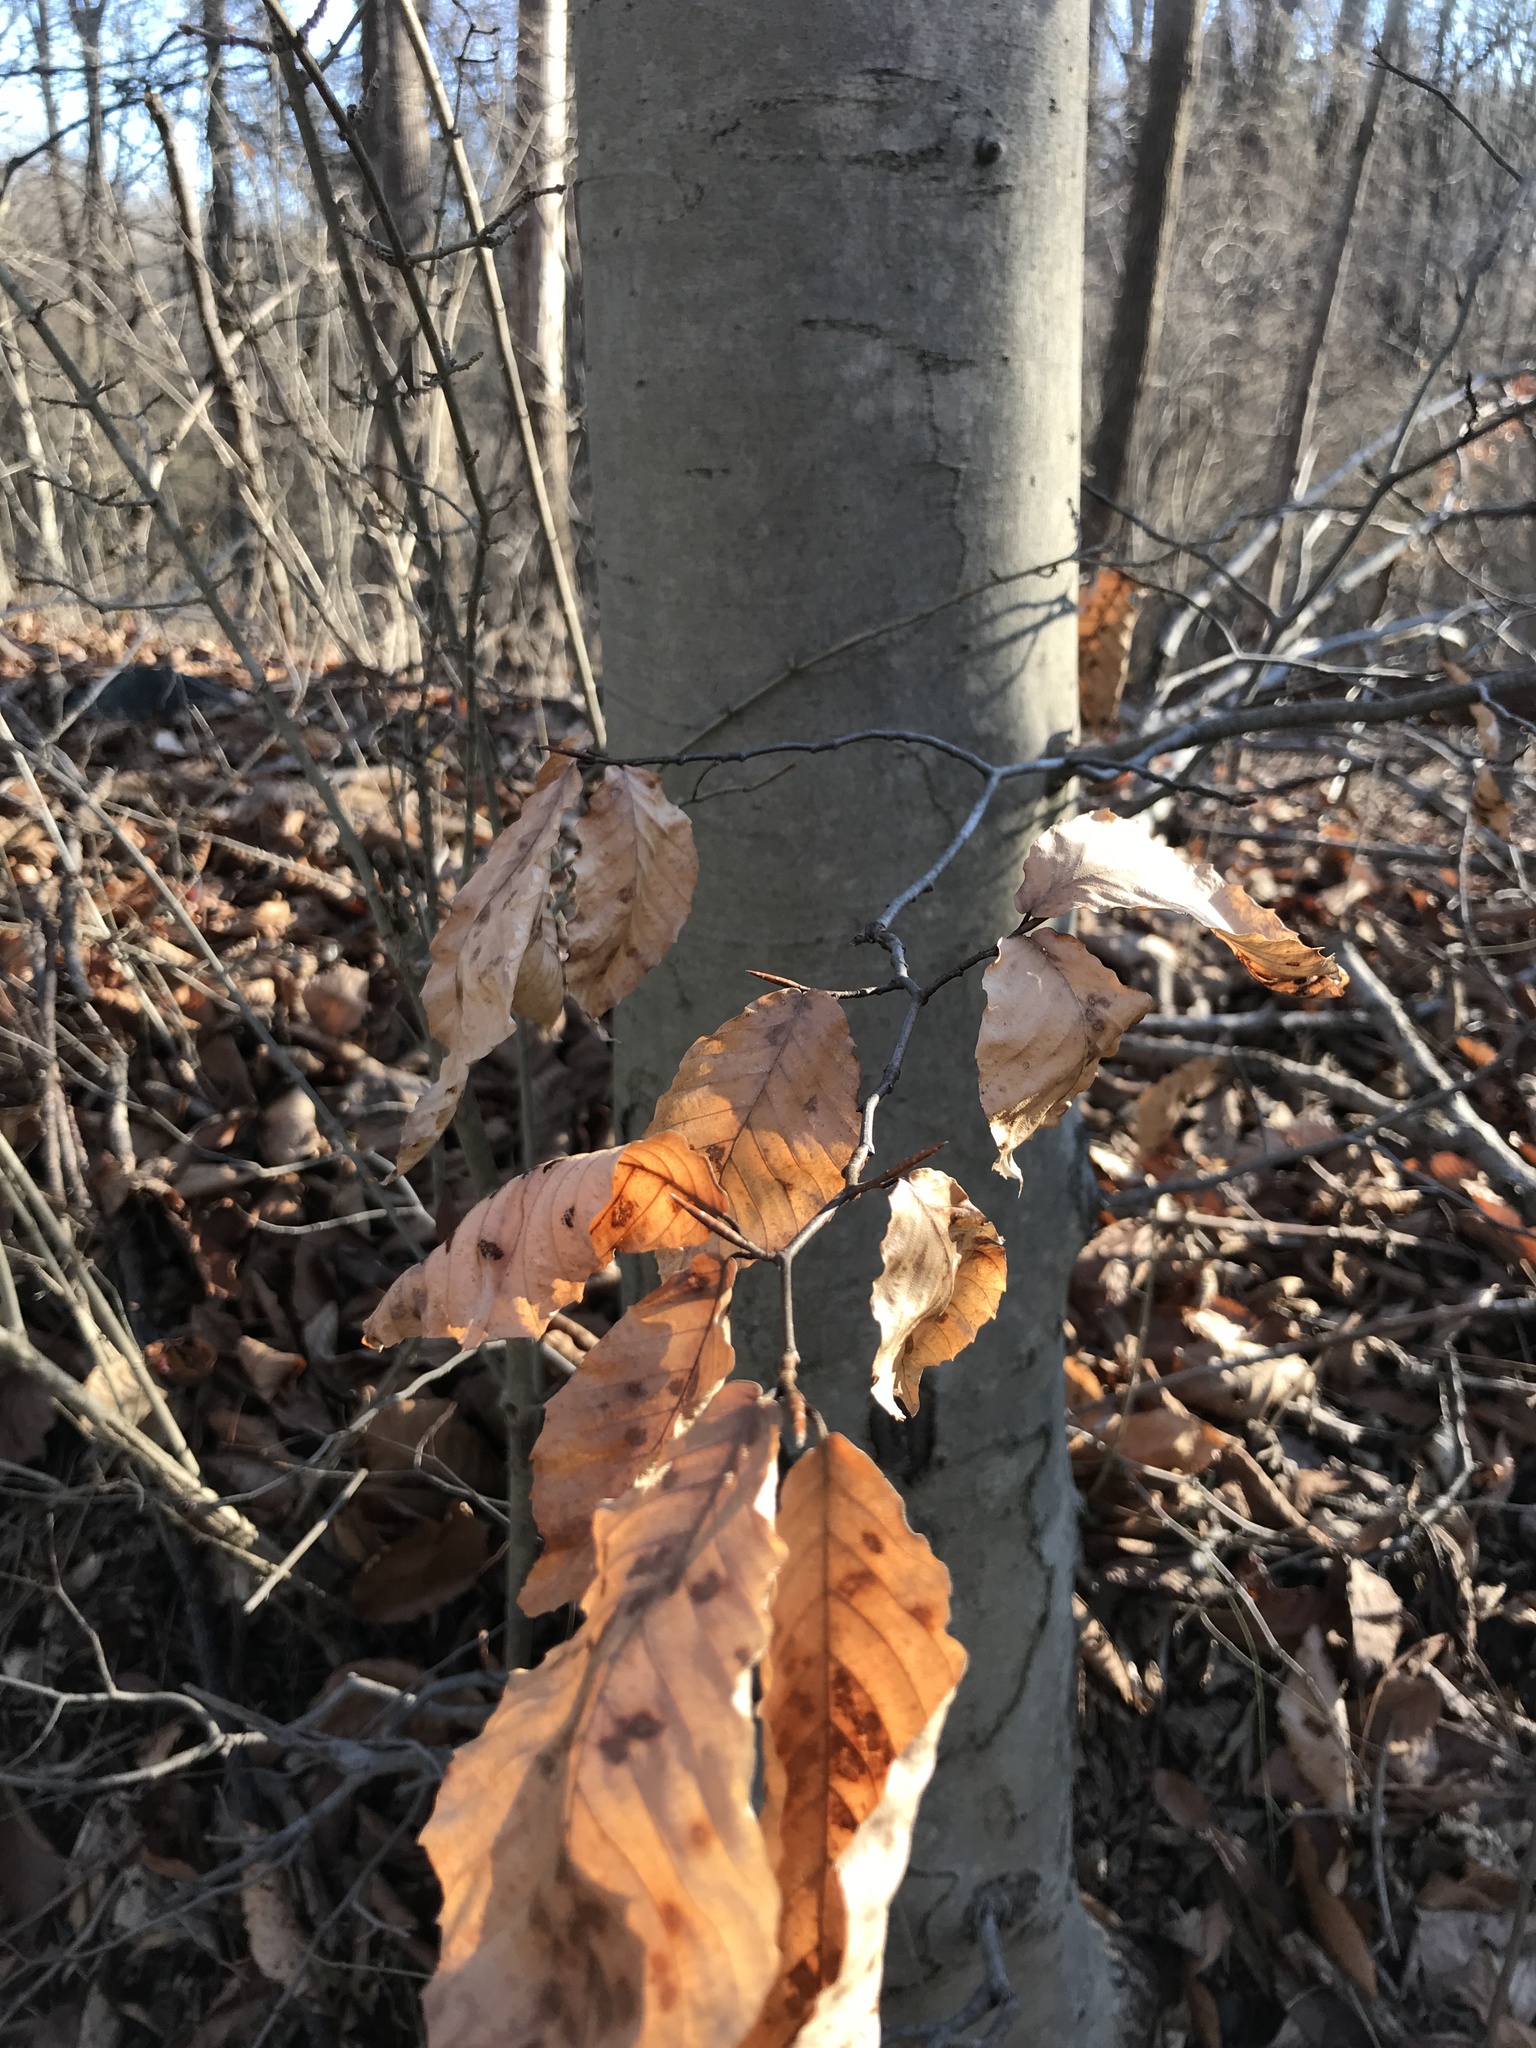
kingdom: Plantae
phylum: Tracheophyta
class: Magnoliopsida
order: Fagales
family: Fagaceae
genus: Fagus
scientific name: Fagus grandifolia
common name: American beech
